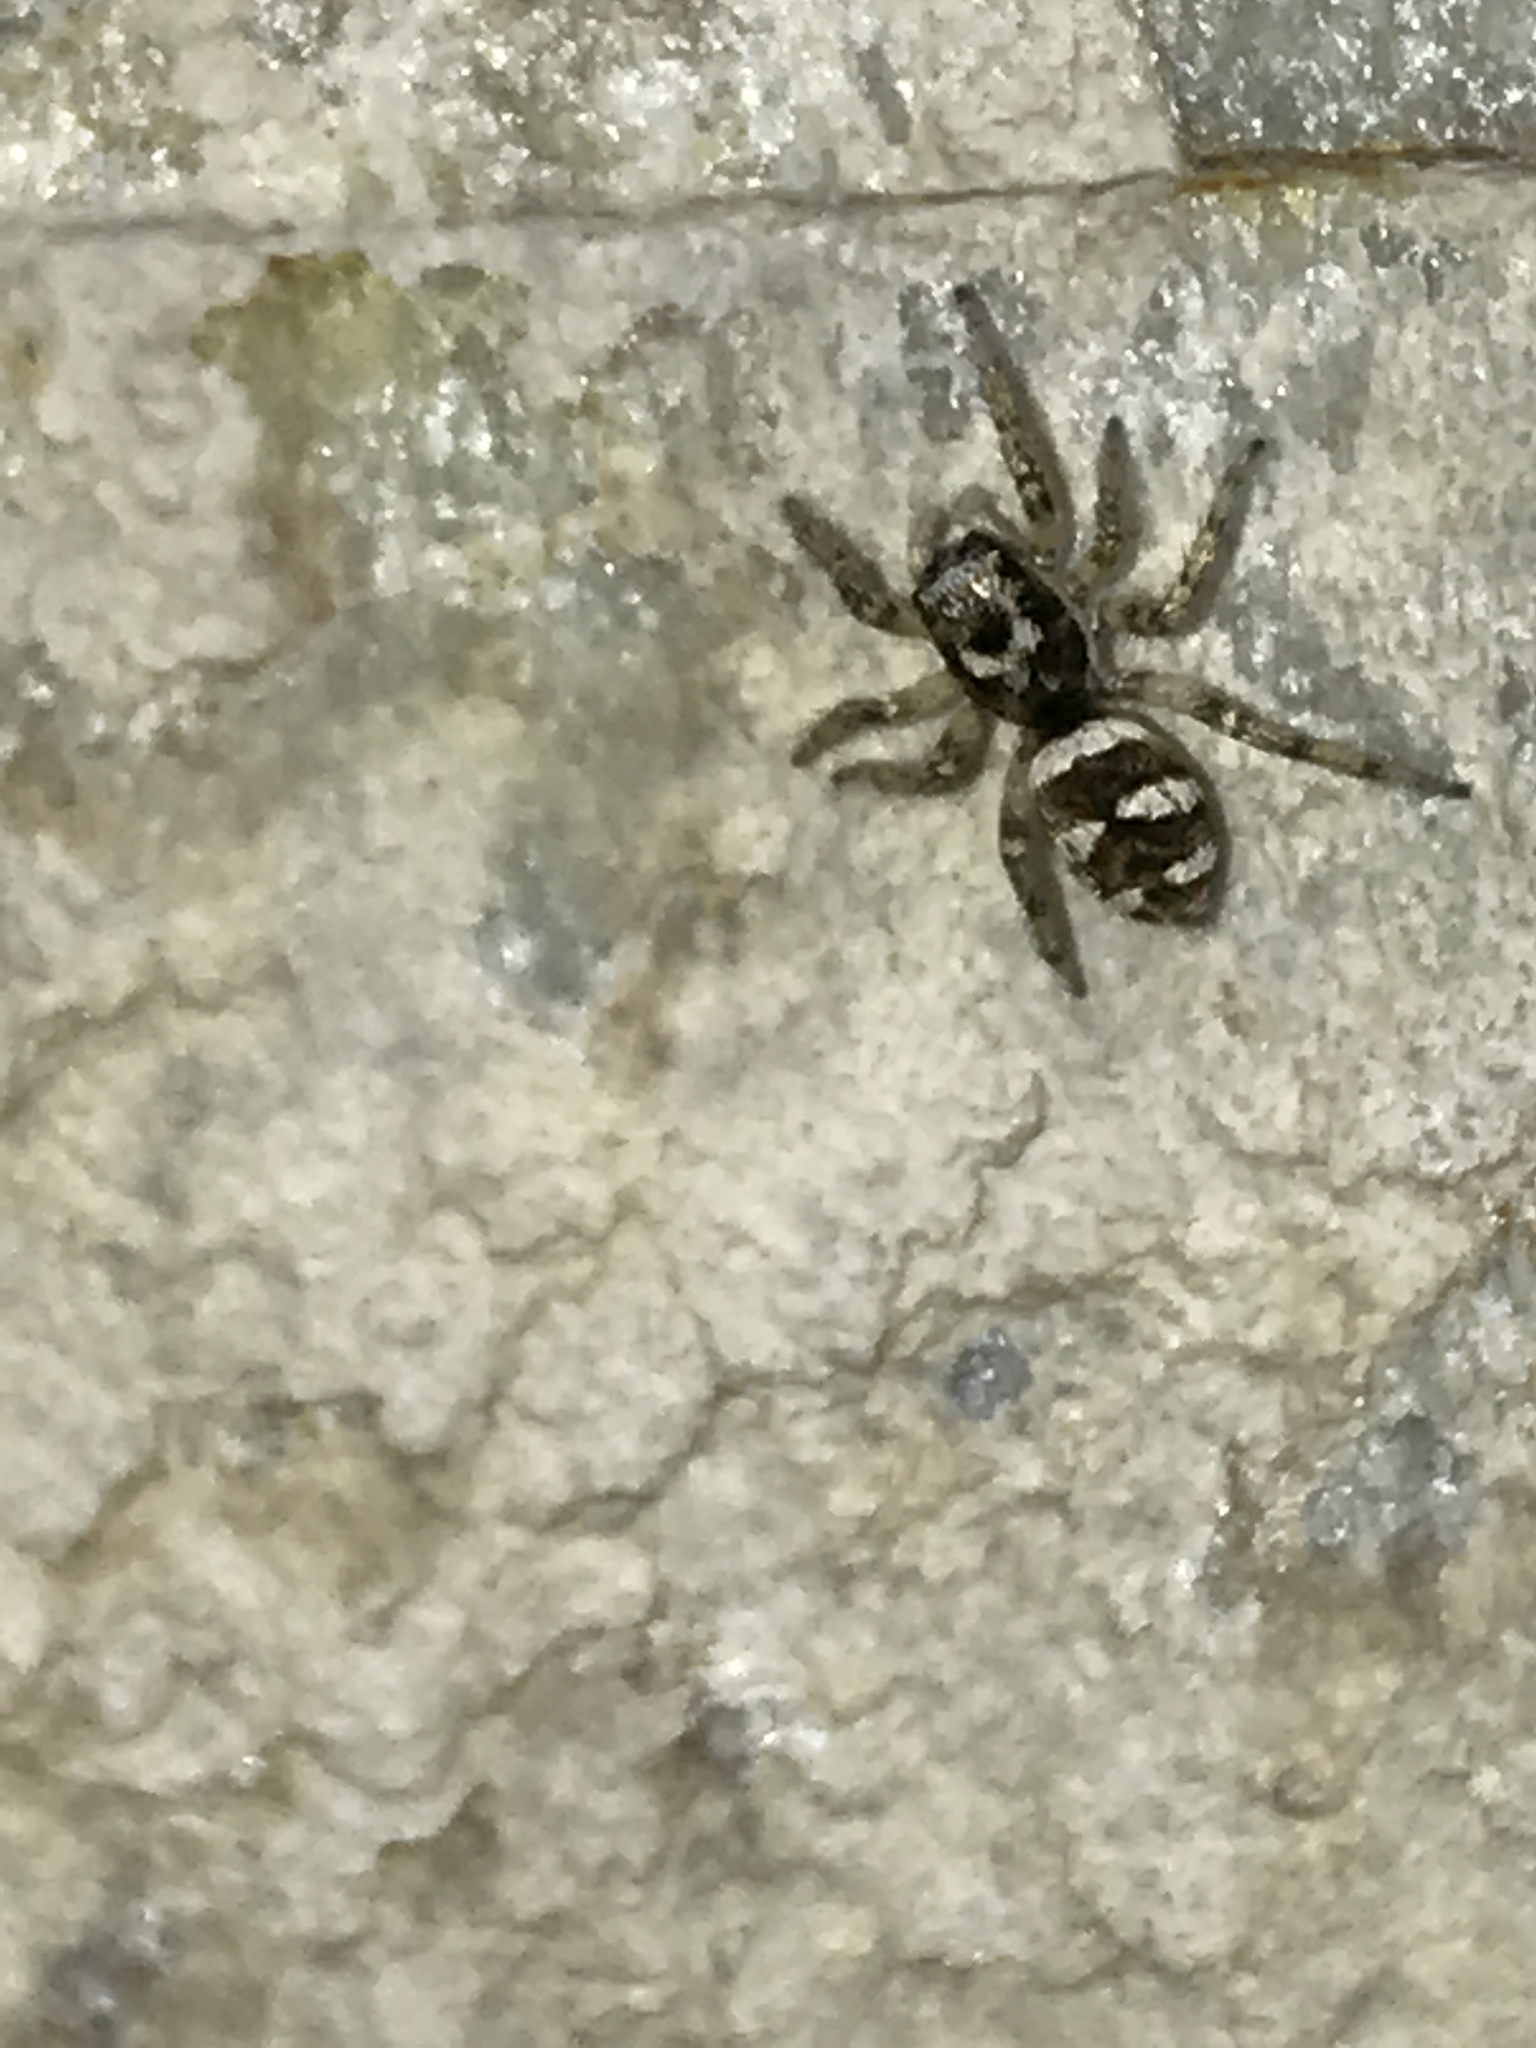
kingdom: Animalia
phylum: Arthropoda
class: Arachnida
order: Araneae
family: Salticidae
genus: Salticus
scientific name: Salticus scenicus
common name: Zebra jumper
